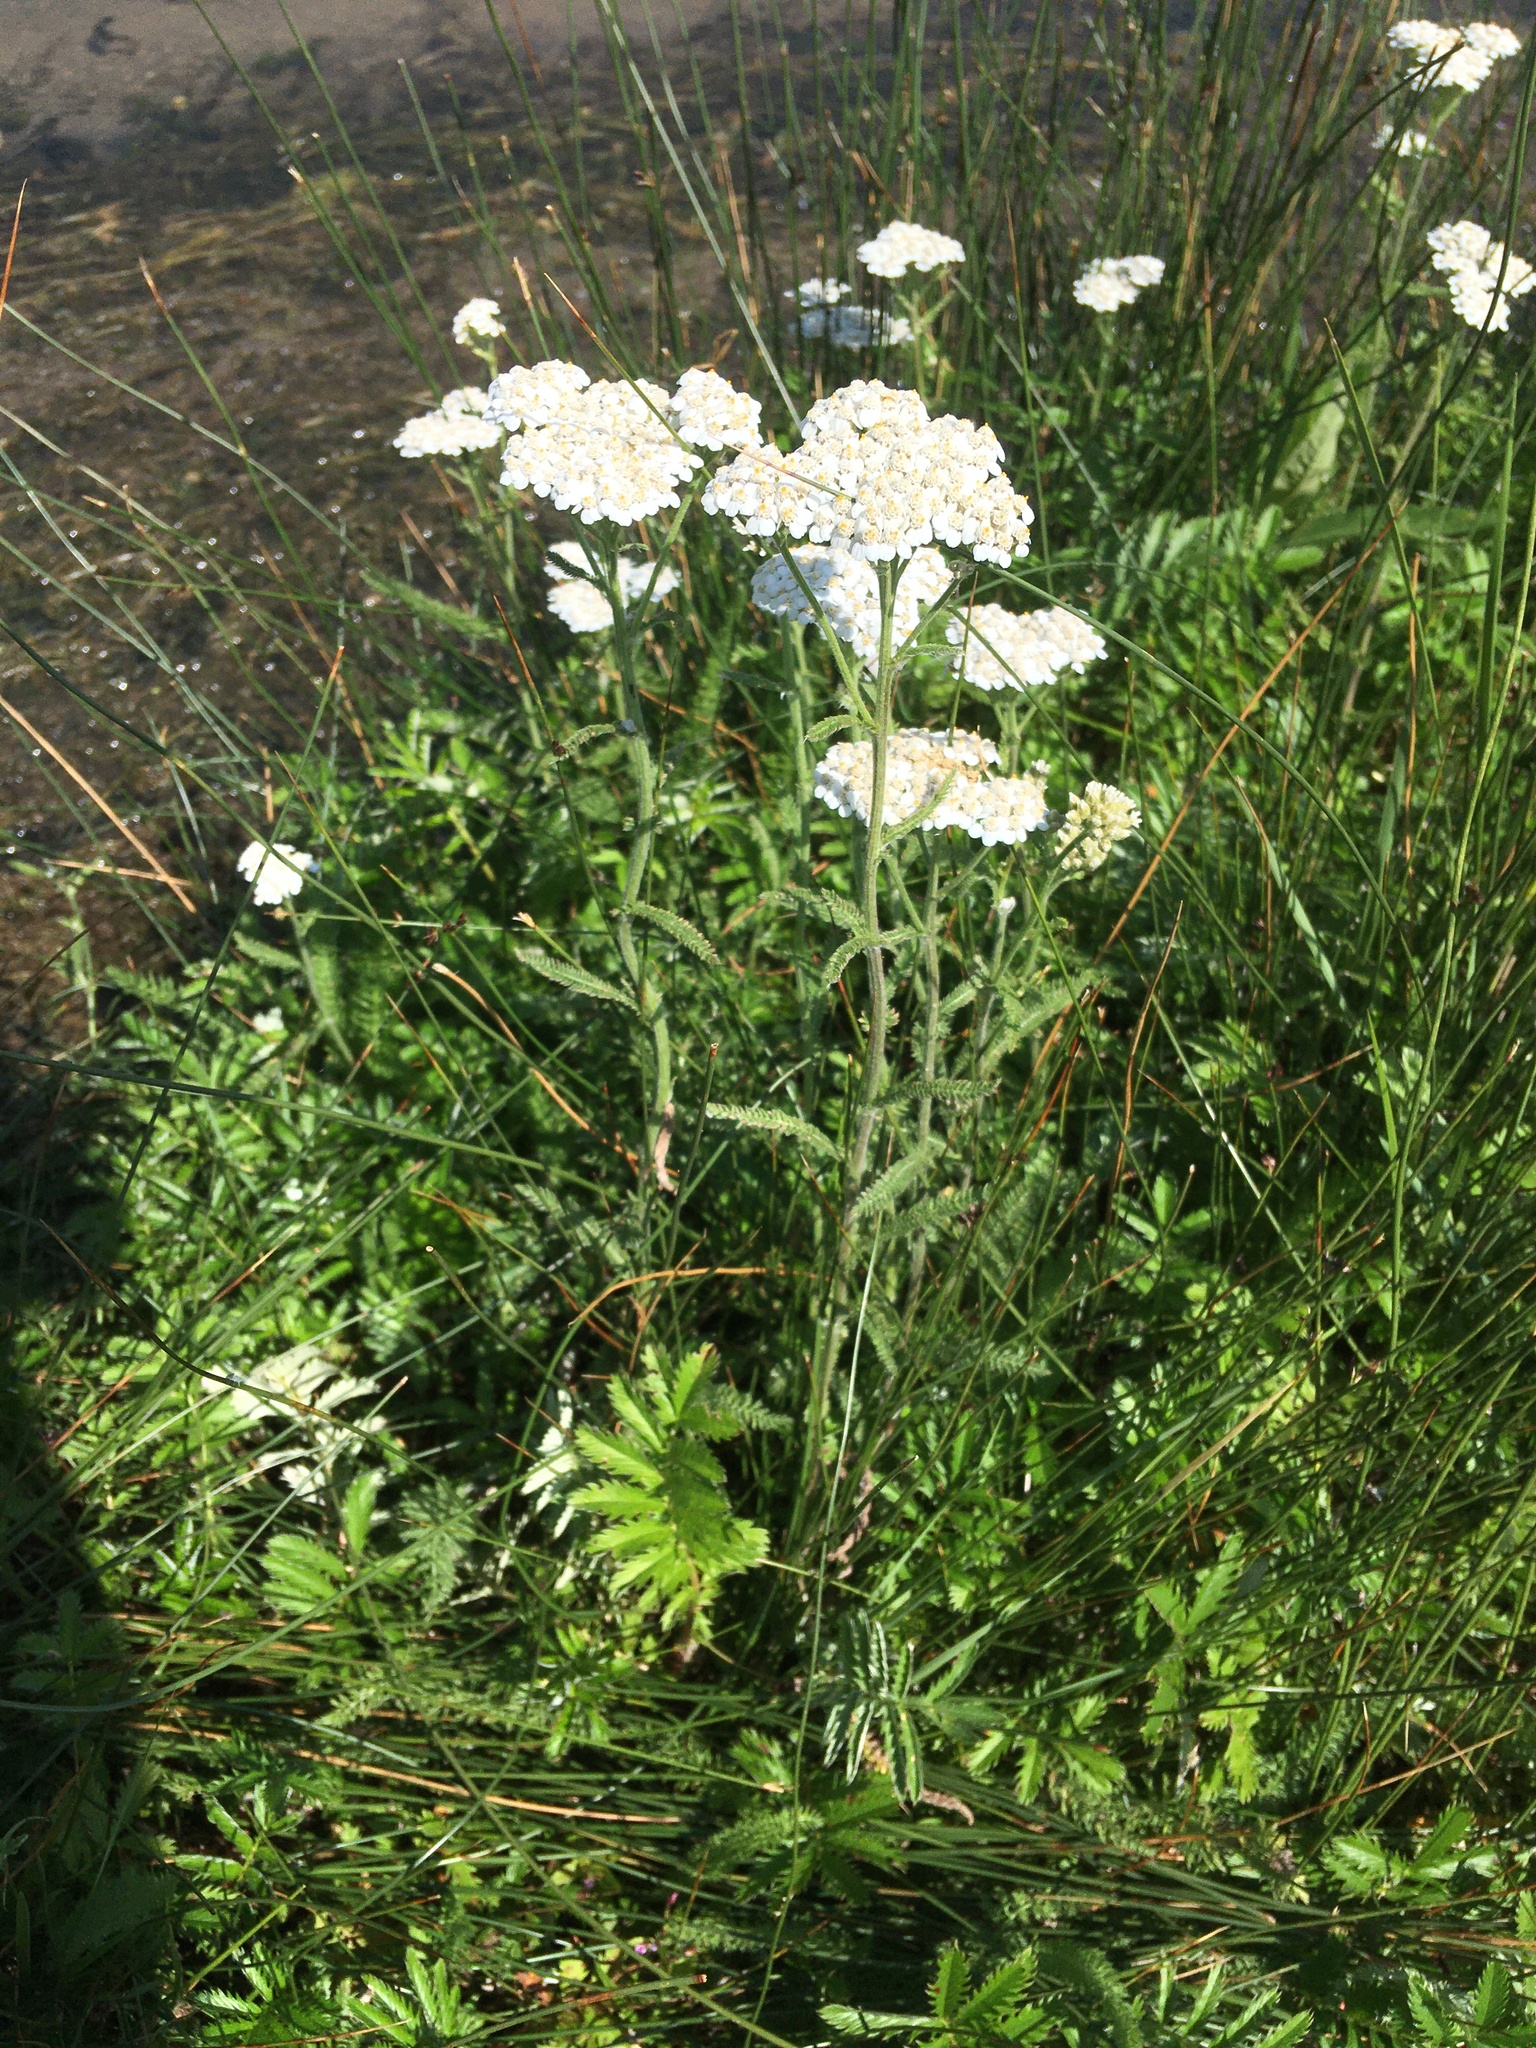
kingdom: Plantae
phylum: Tracheophyta
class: Magnoliopsida
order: Asterales
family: Asteraceae
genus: Achillea
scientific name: Achillea millefolium
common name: Yarrow
